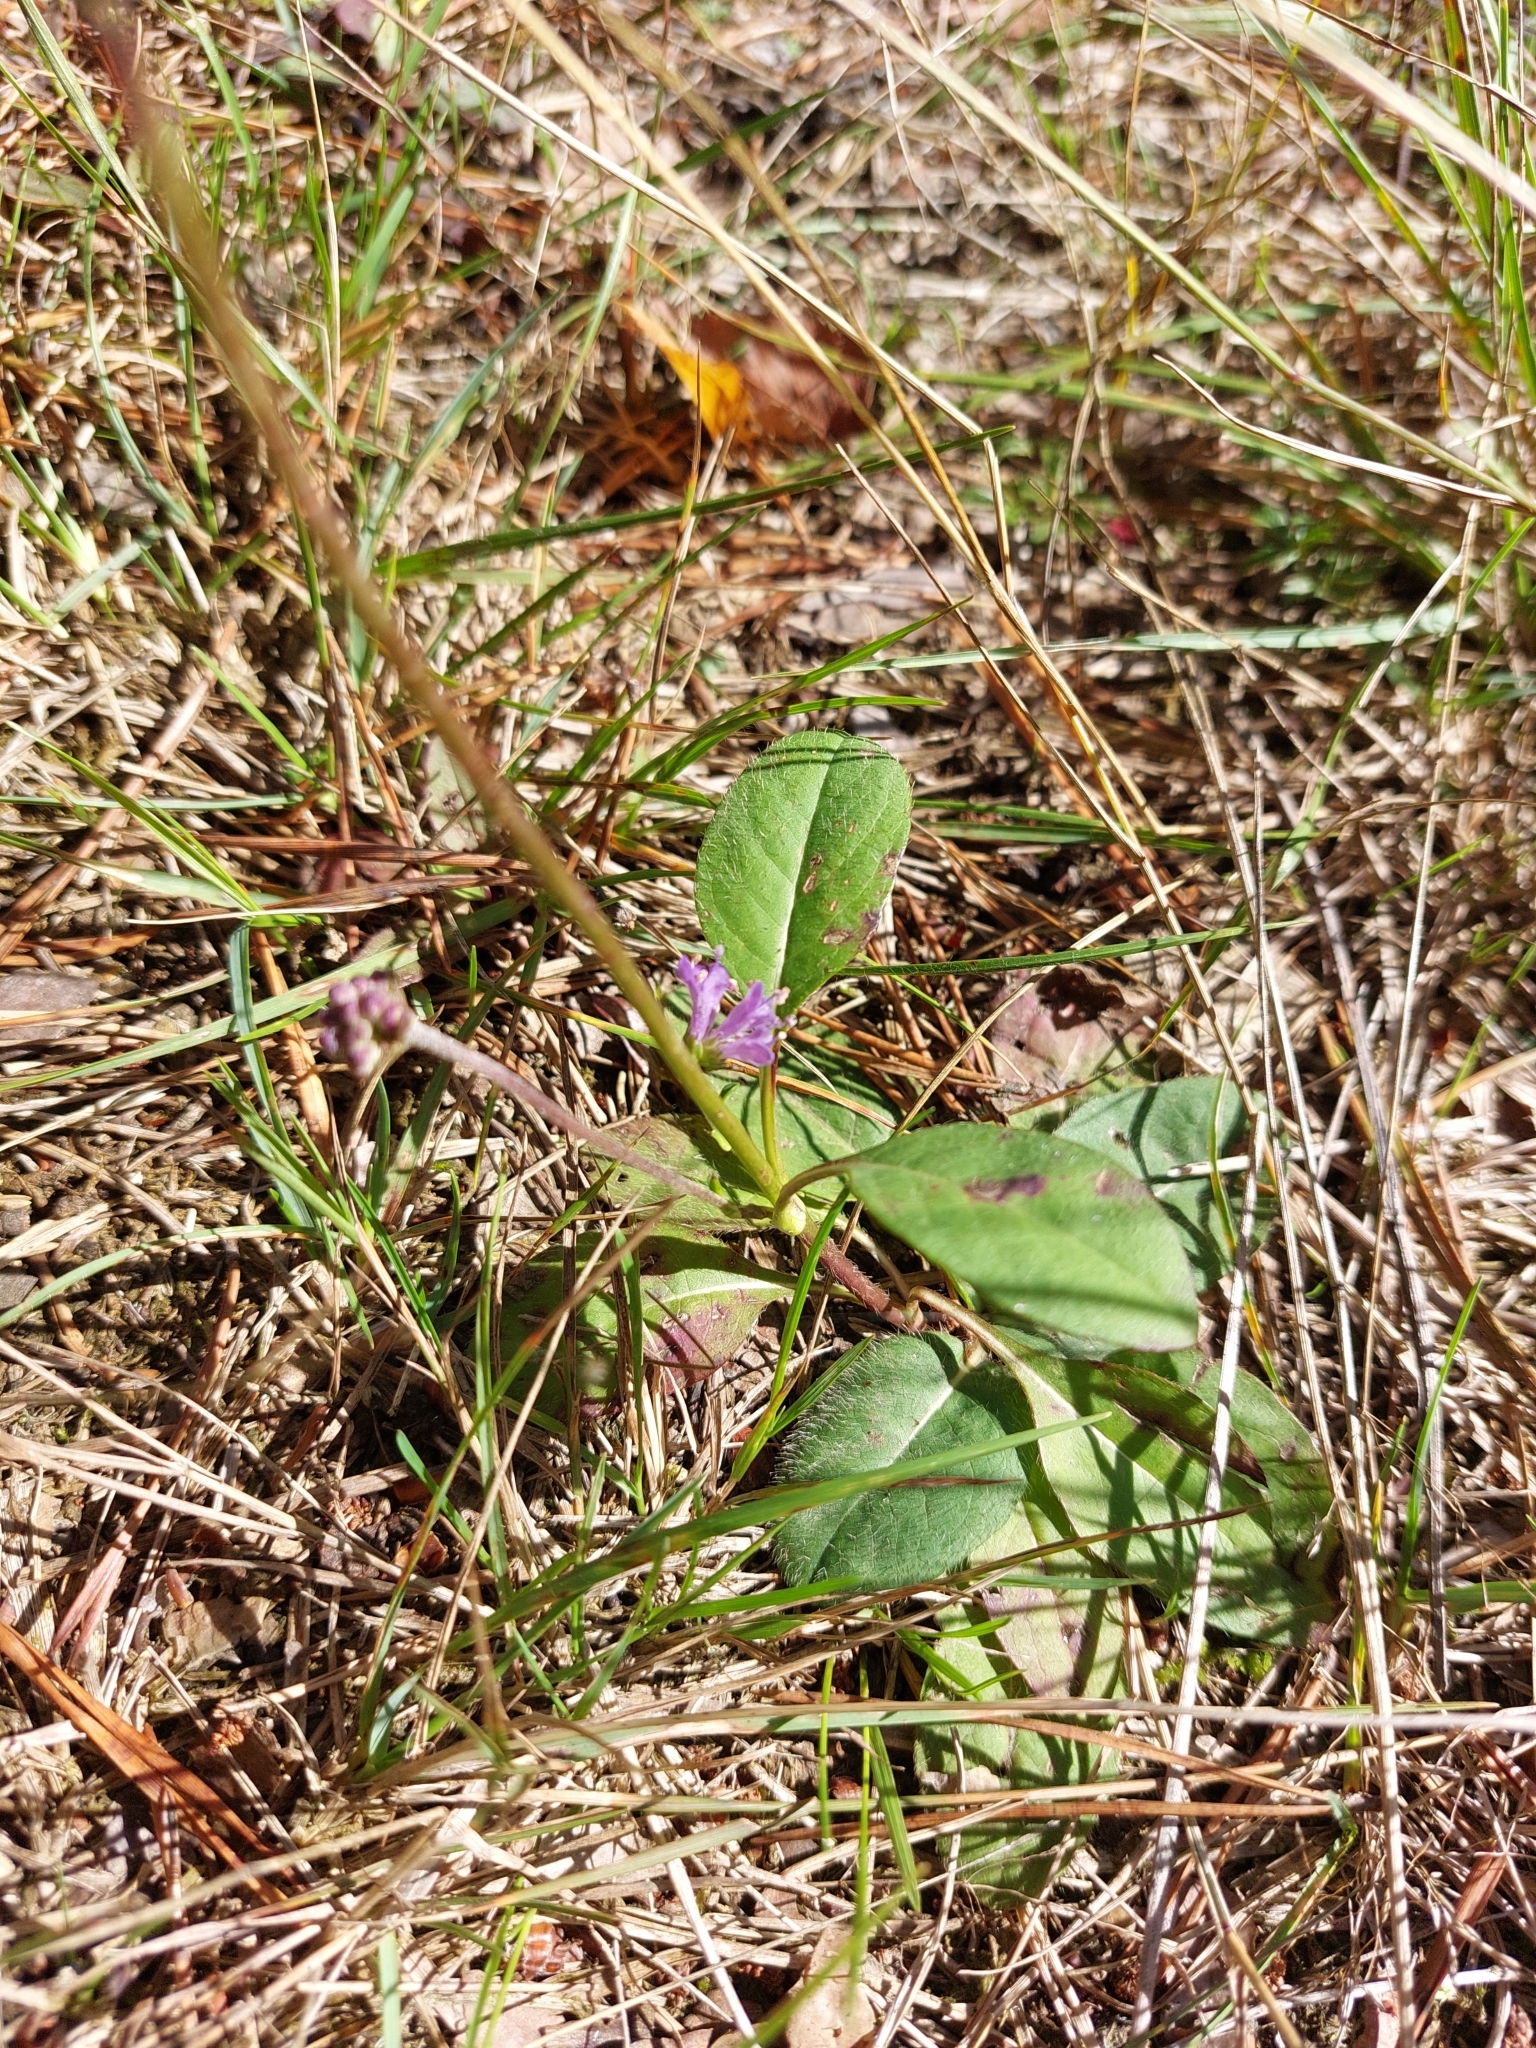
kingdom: Plantae
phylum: Tracheophyta
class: Magnoliopsida
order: Dipsacales
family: Caprifoliaceae
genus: Succisa
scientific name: Succisa pratensis
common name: Devil's-bit
